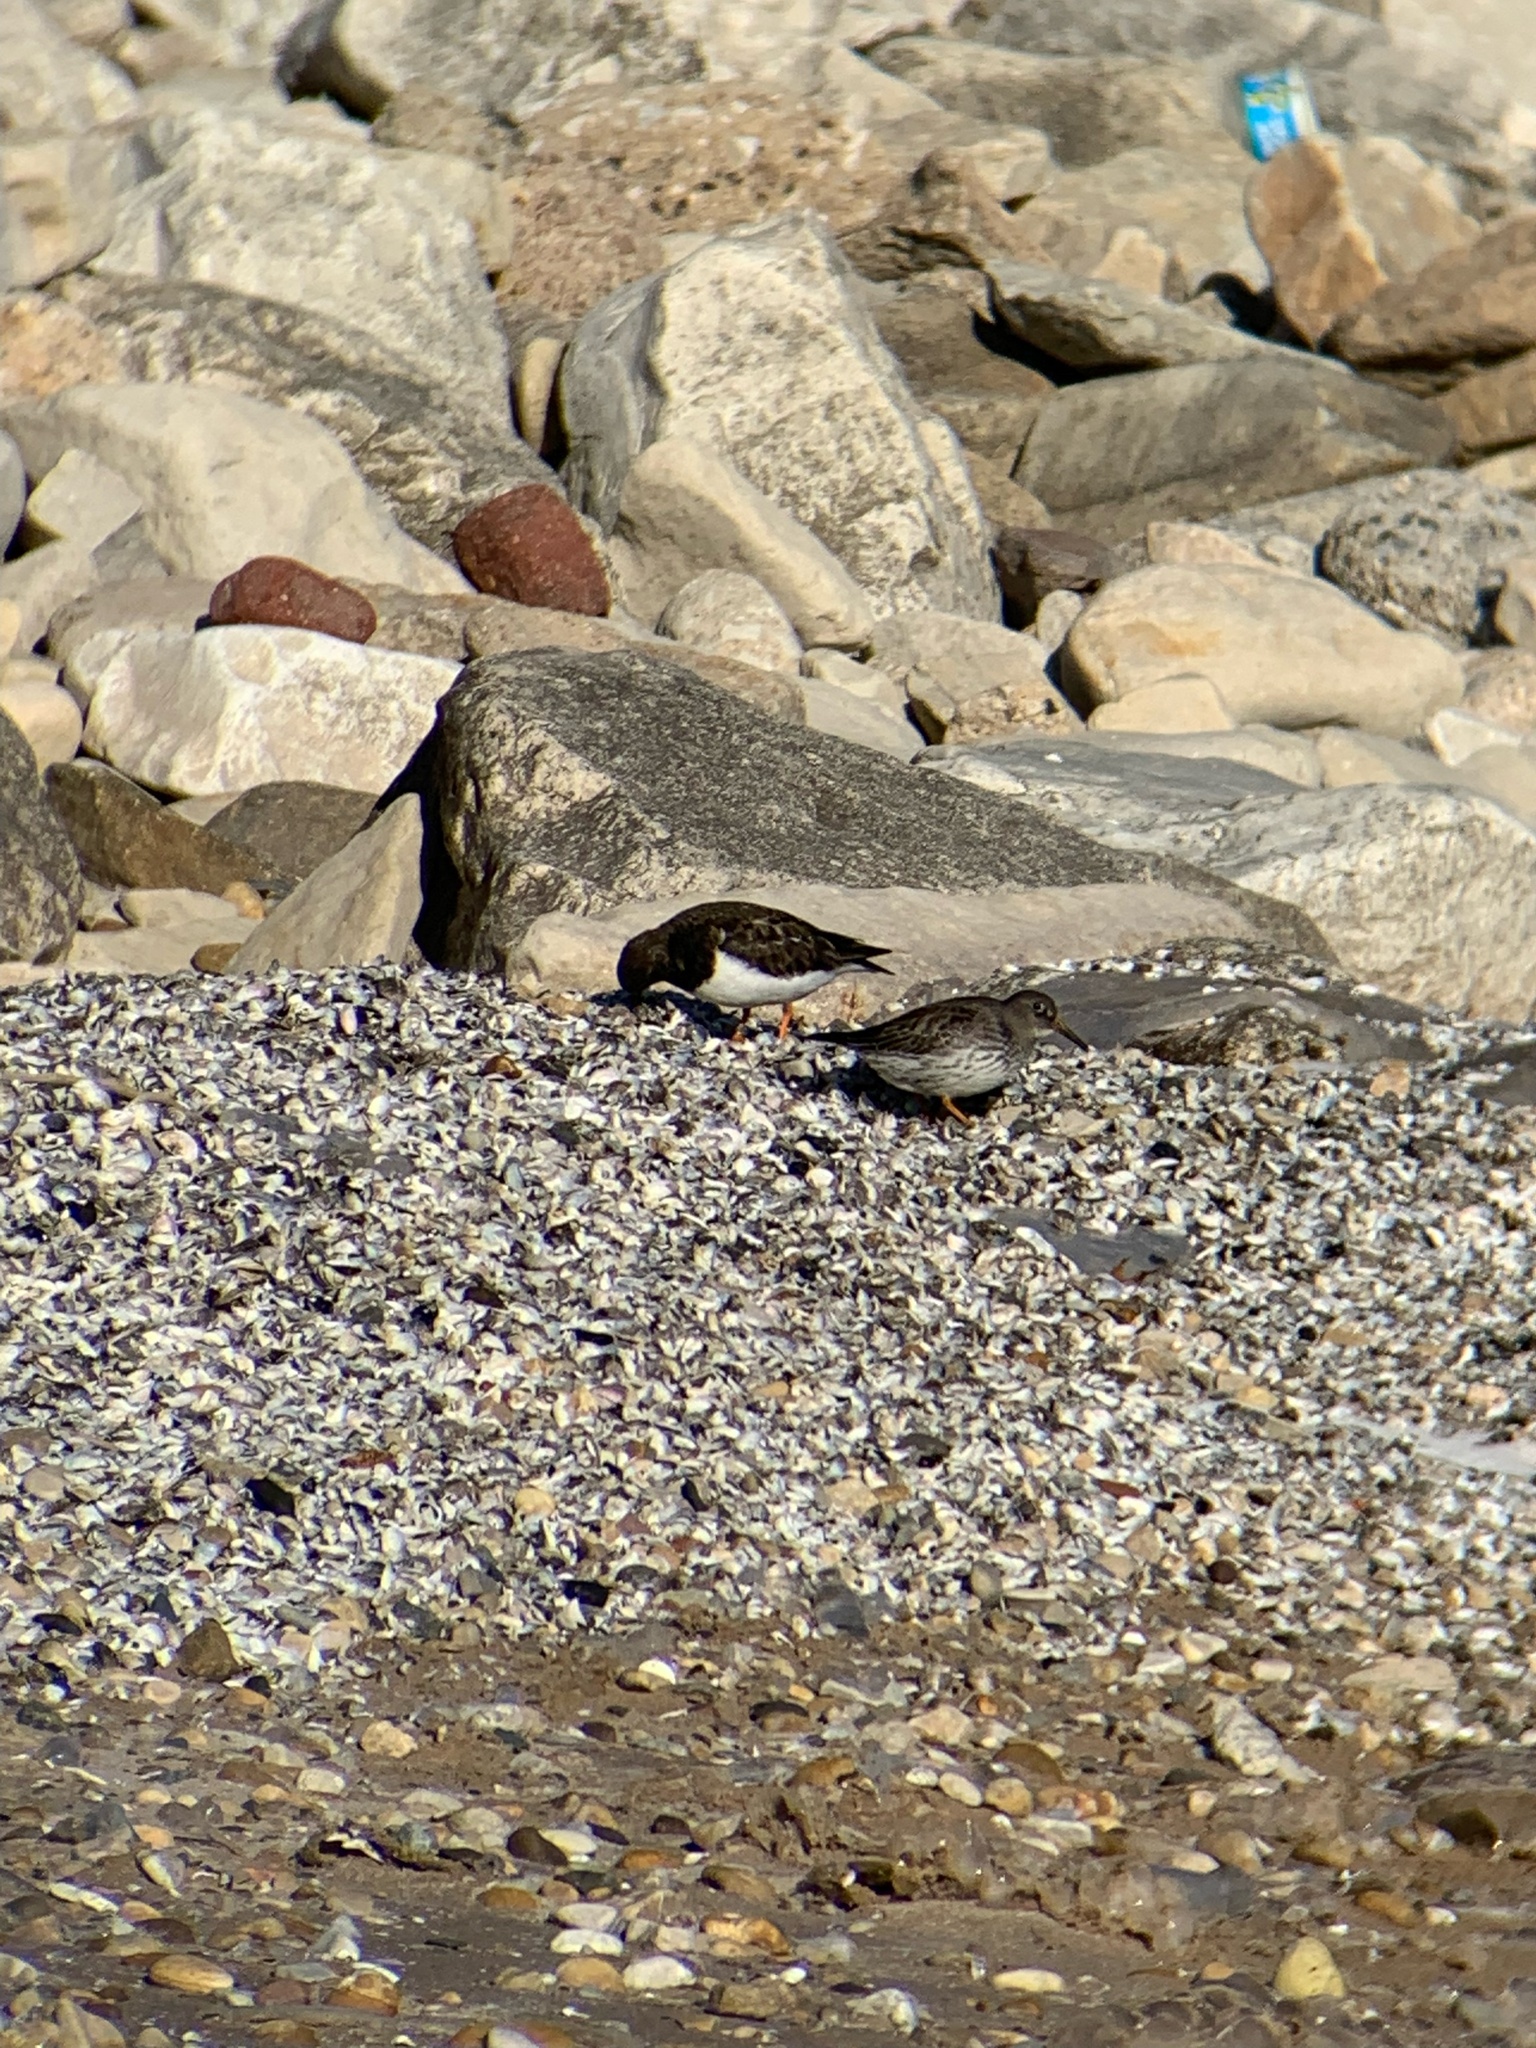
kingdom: Animalia
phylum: Chordata
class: Aves
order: Charadriiformes
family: Scolopacidae
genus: Arenaria
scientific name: Arenaria interpres
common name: Ruddy turnstone
